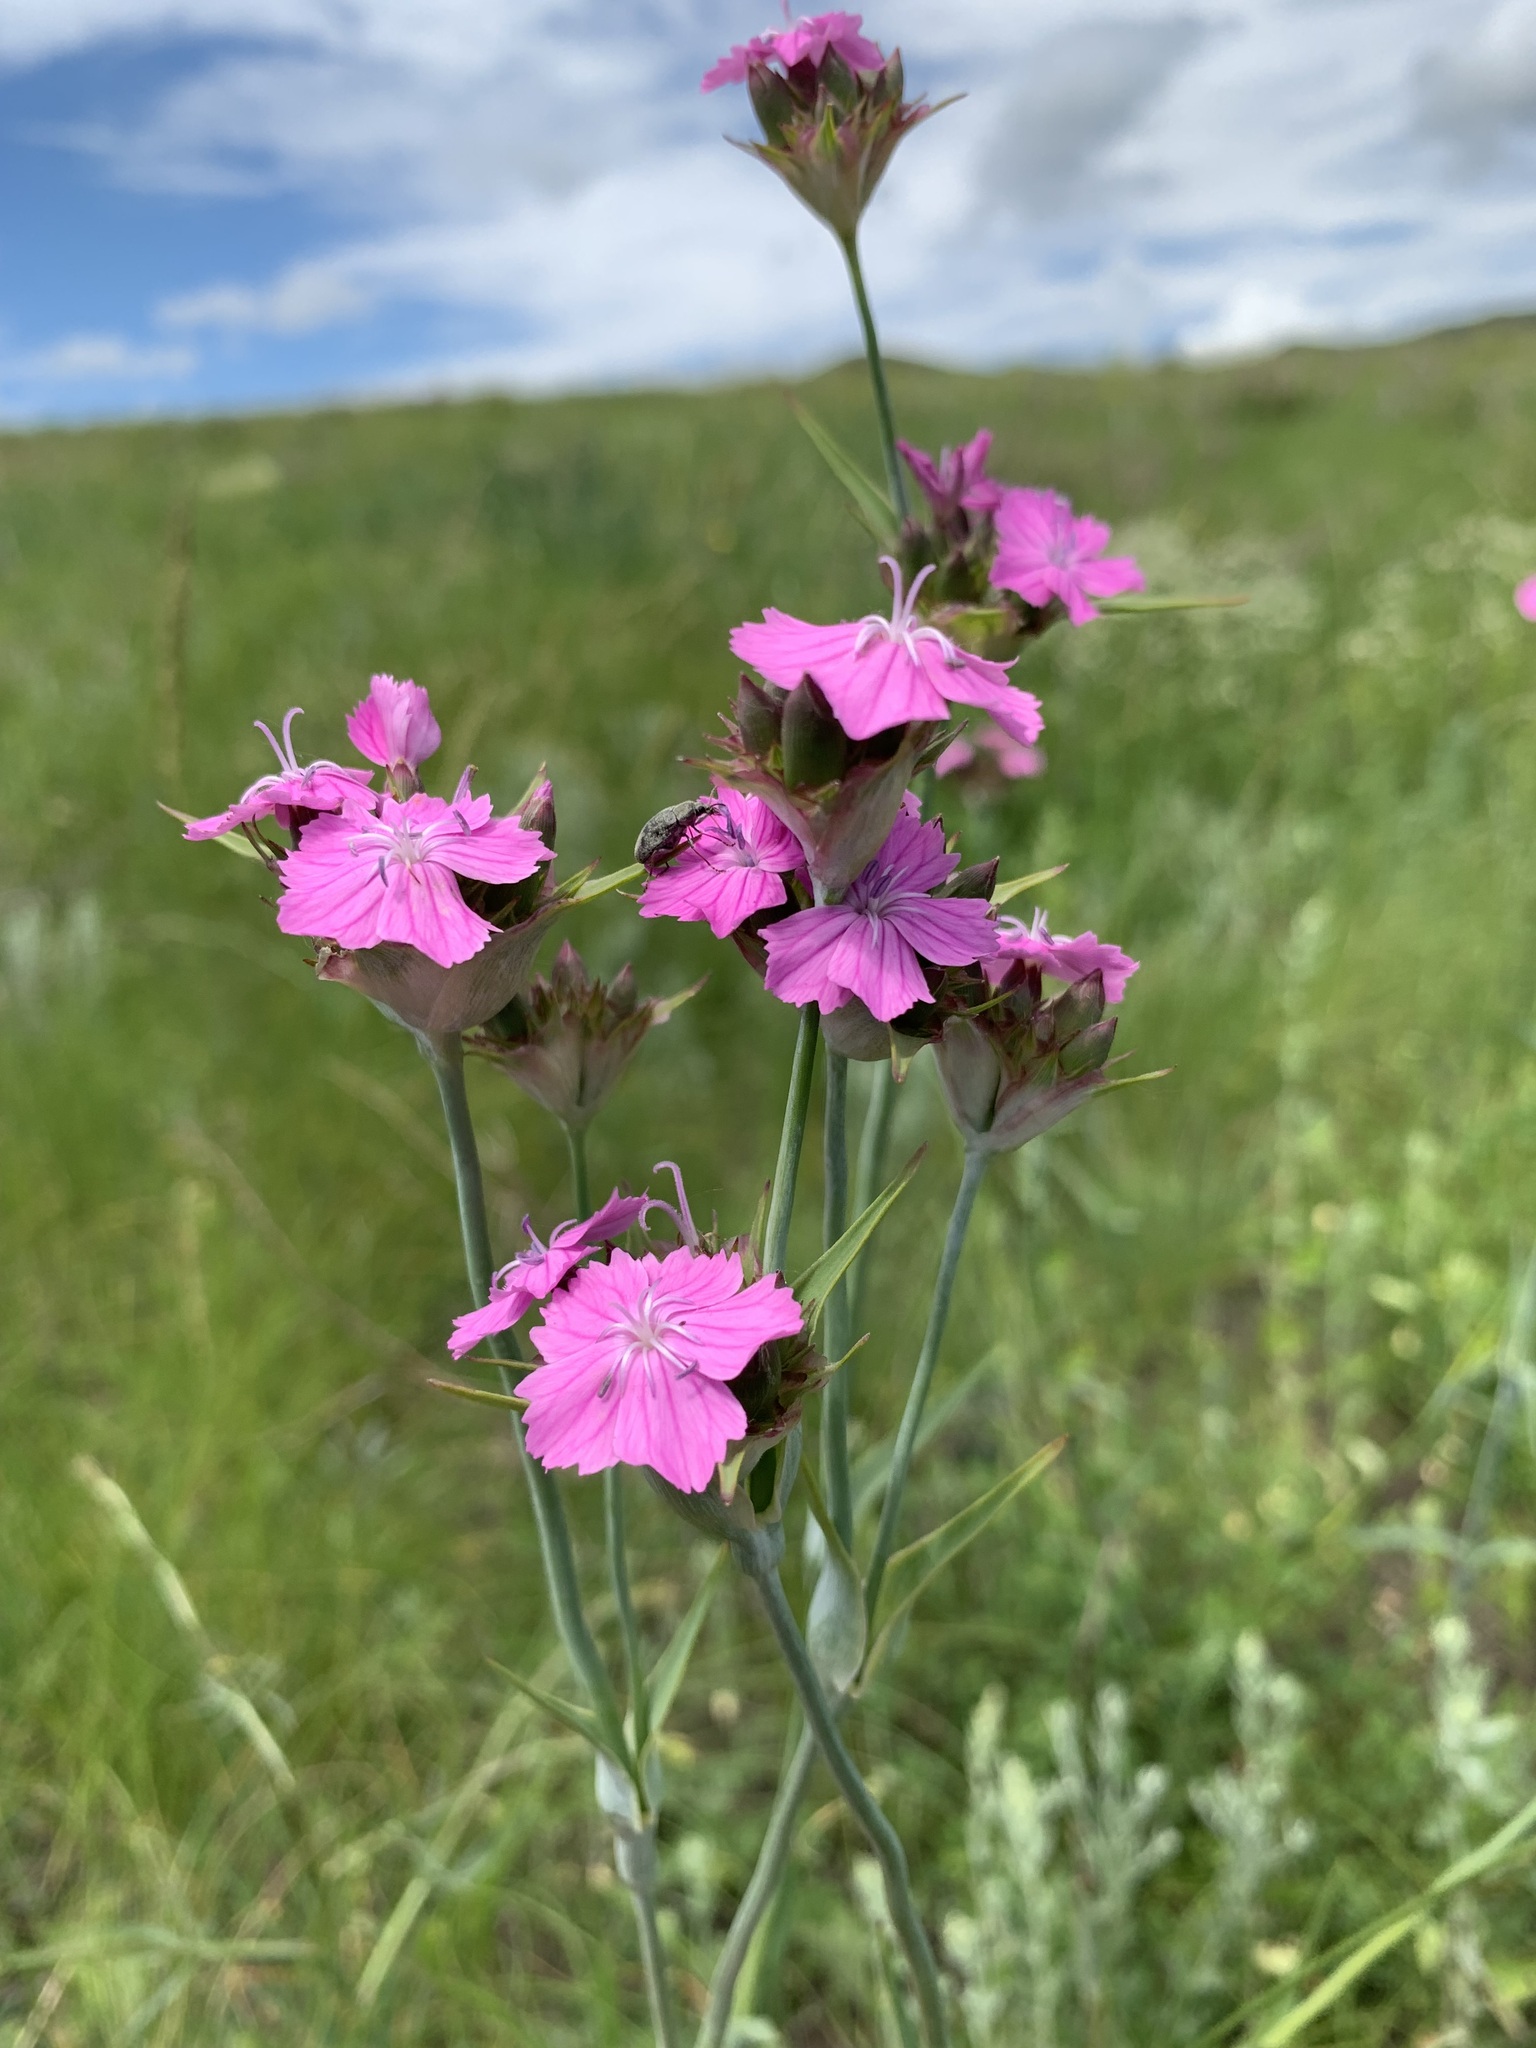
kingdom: Plantae
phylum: Tracheophyta
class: Magnoliopsida
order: Caryophyllales
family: Caryophyllaceae
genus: Dianthus
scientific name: Dianthus capitatus
